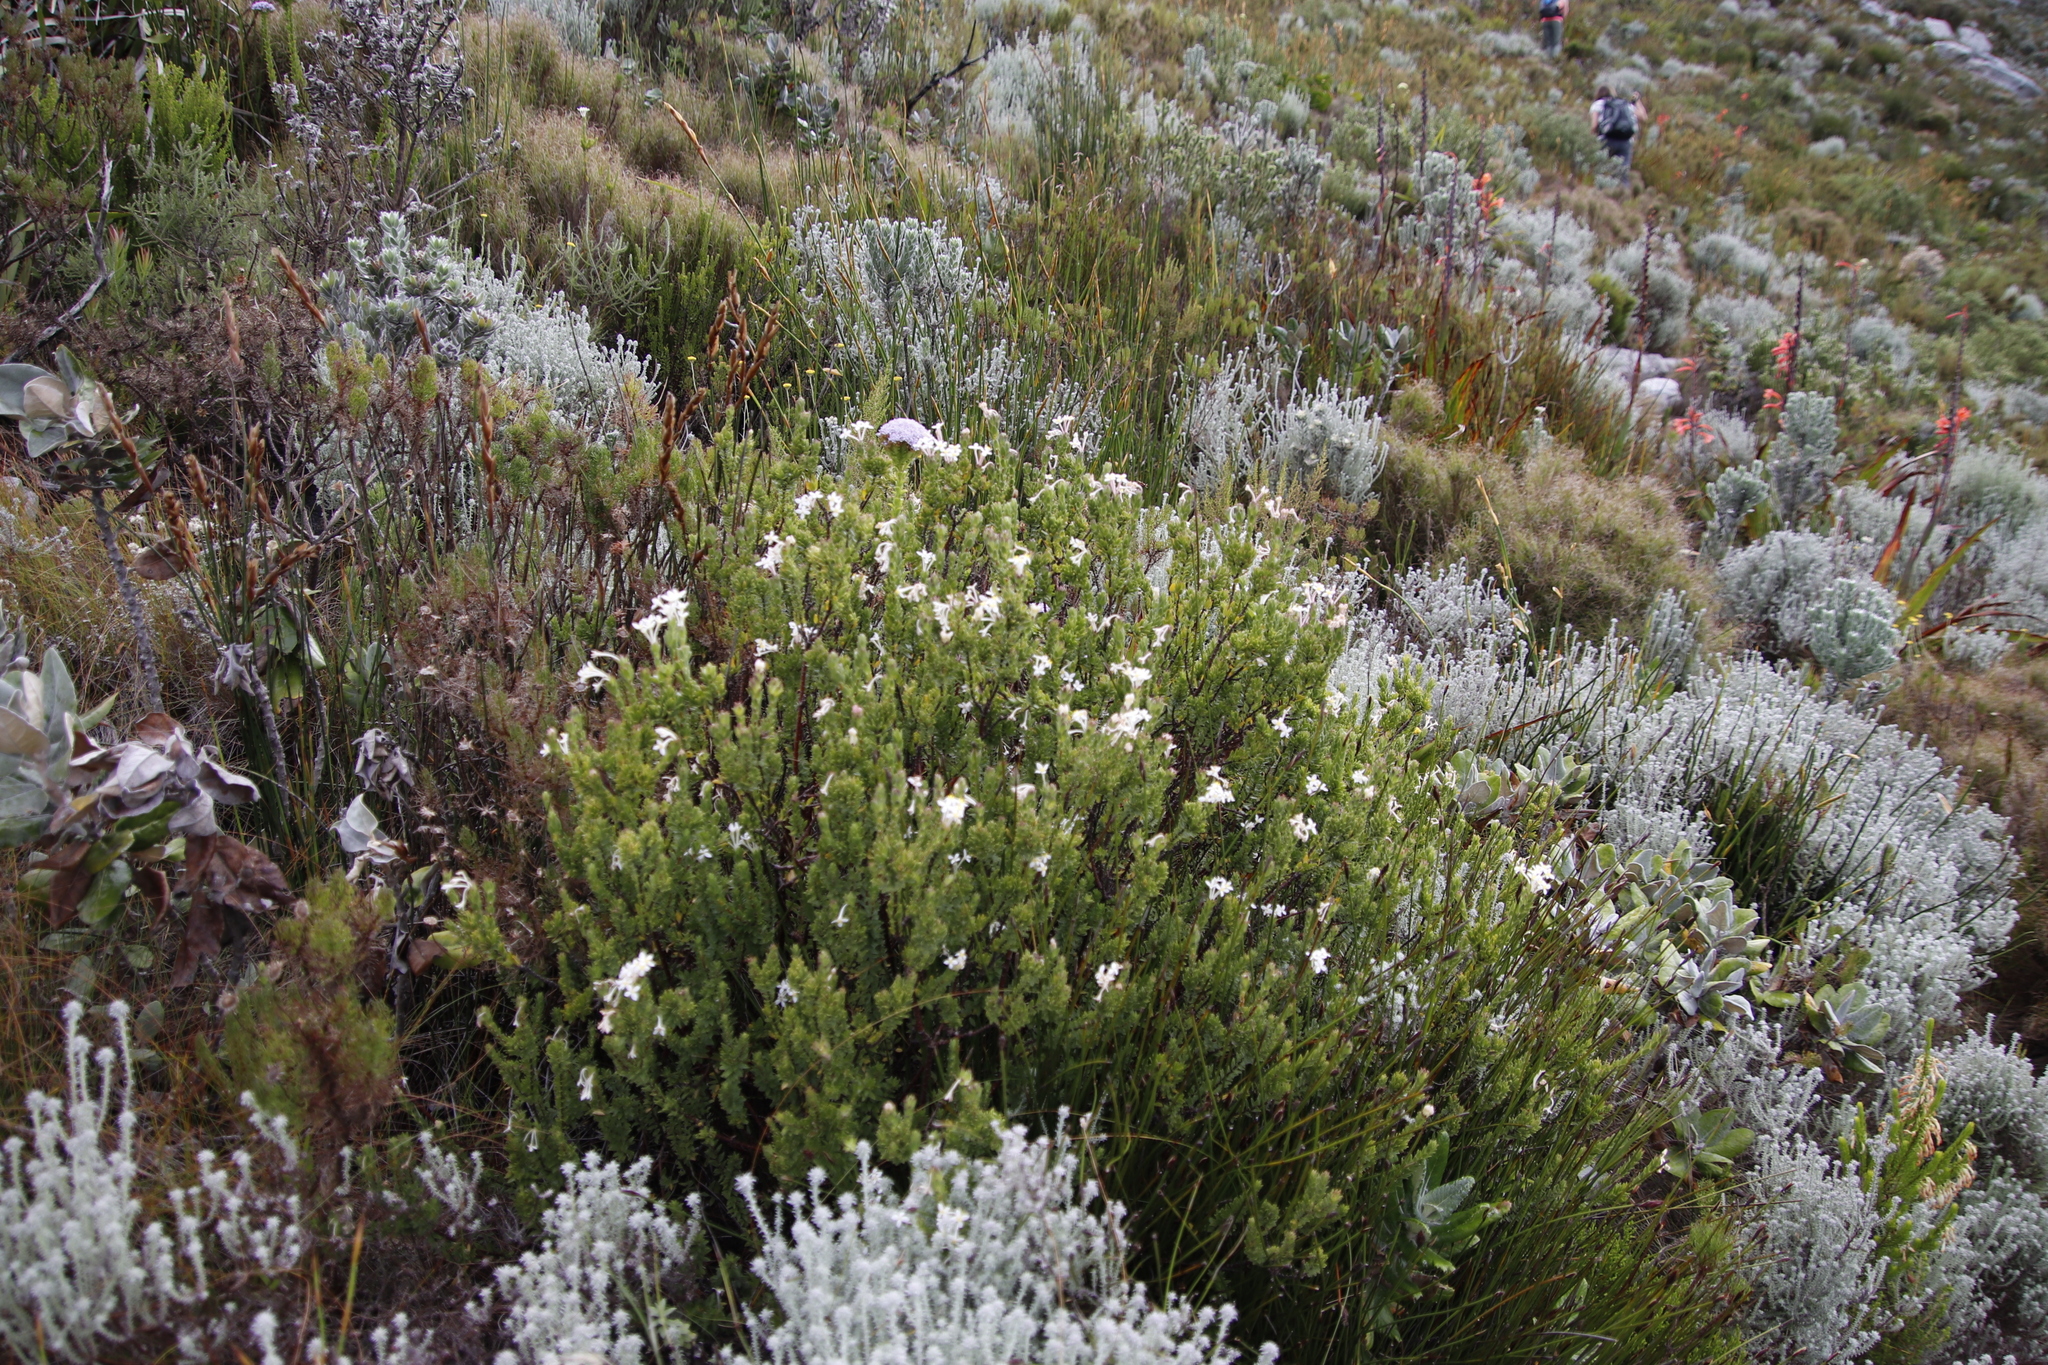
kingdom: Plantae
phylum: Tracheophyta
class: Magnoliopsida
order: Malvales
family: Thymelaeaceae
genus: Gnidia
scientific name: Gnidia tomentosa
